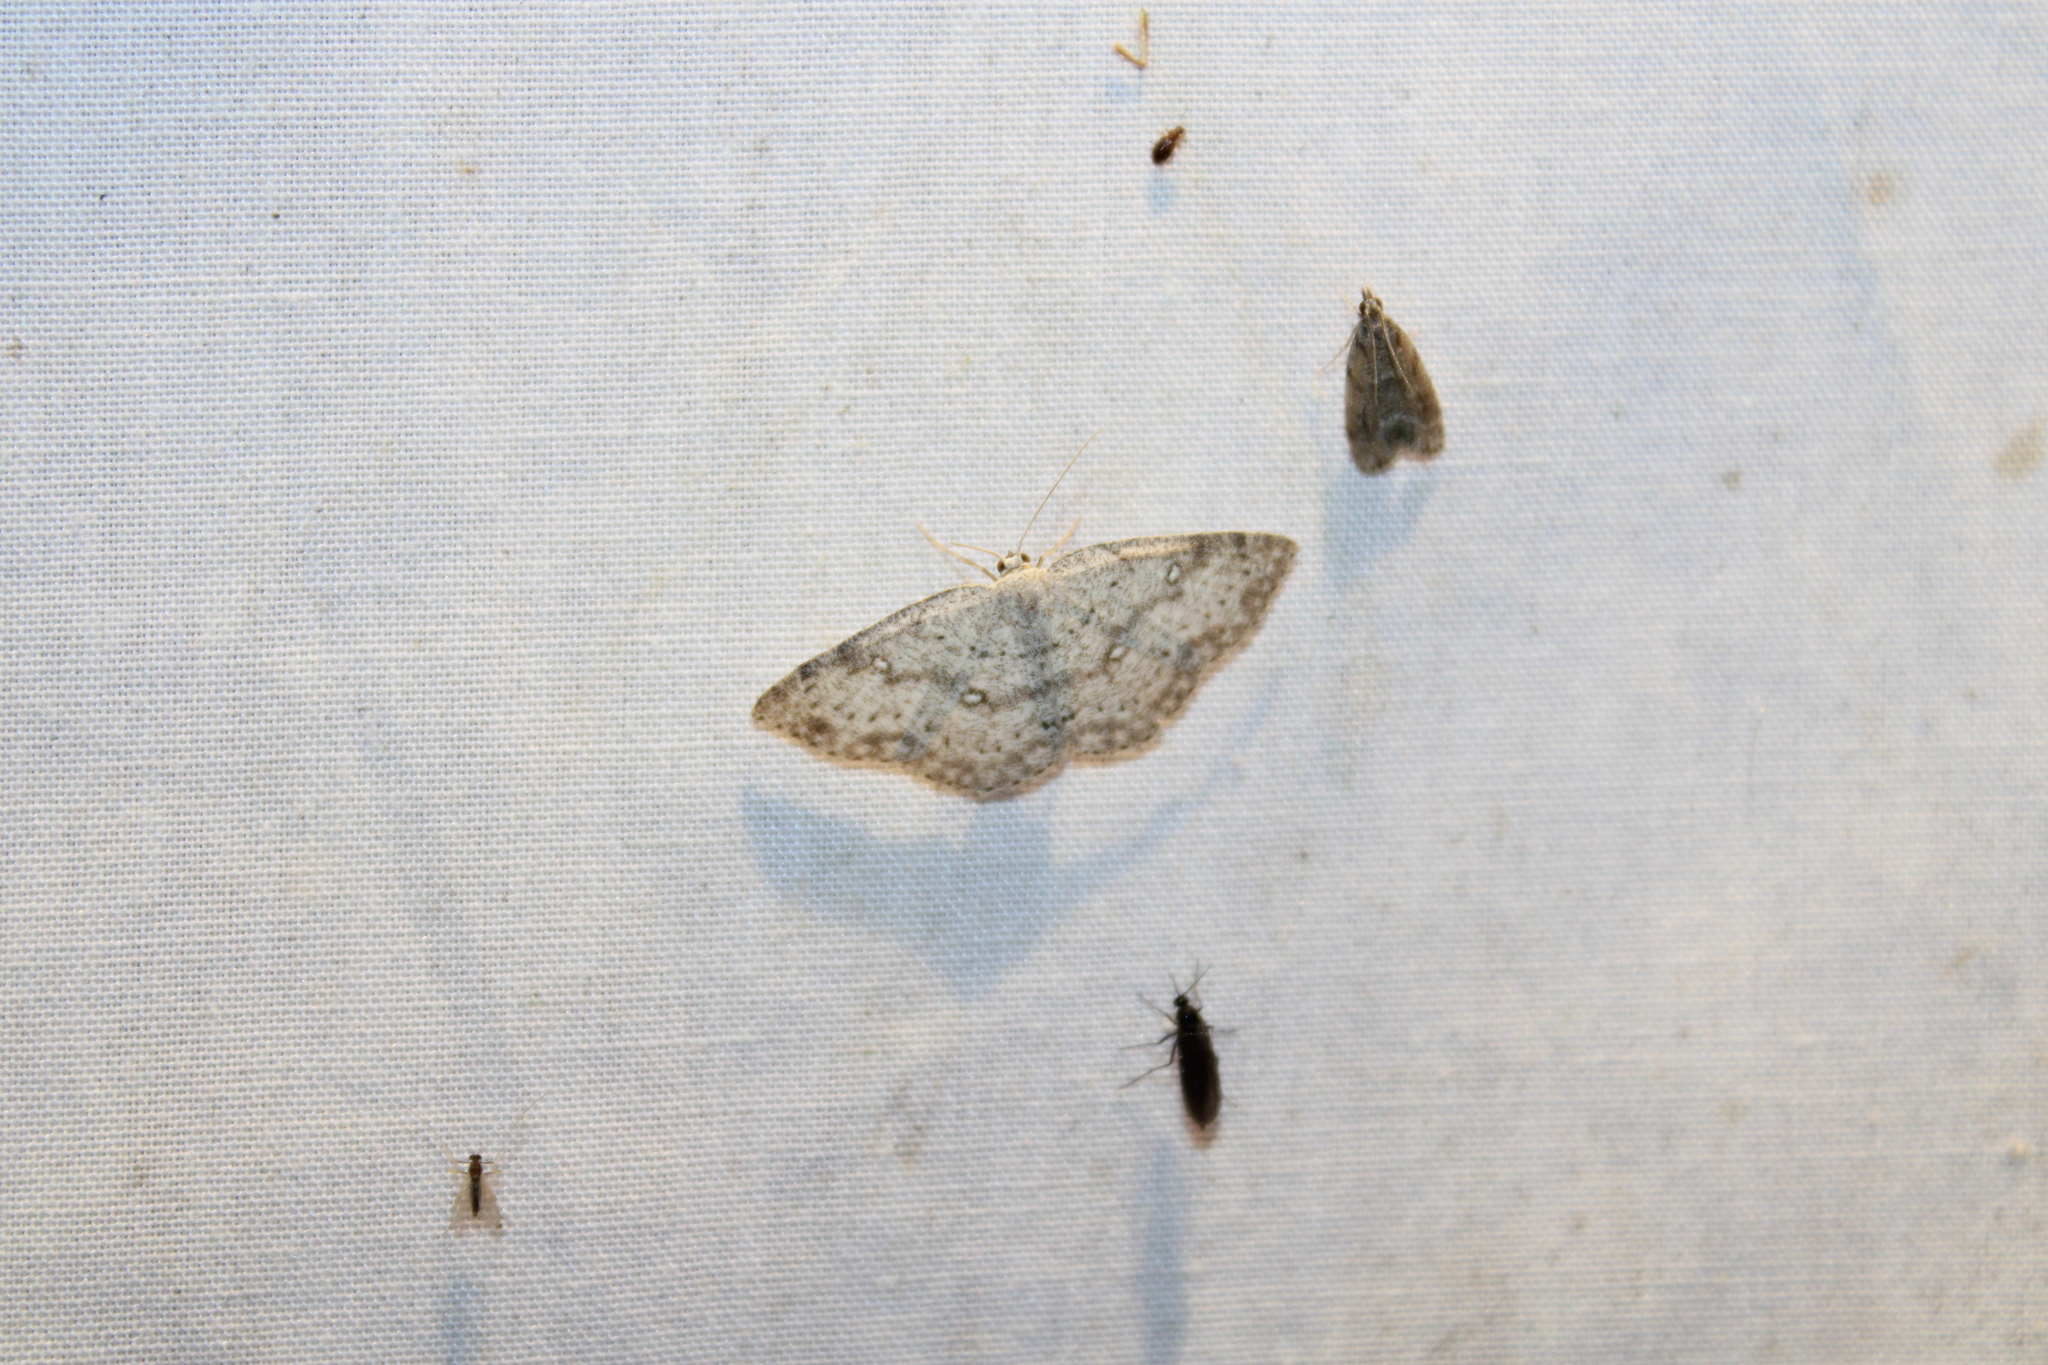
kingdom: Animalia
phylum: Arthropoda
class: Insecta
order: Lepidoptera
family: Geometridae
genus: Cyclophora
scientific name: Cyclophora pendulinaria
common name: Sweet fern geometer
